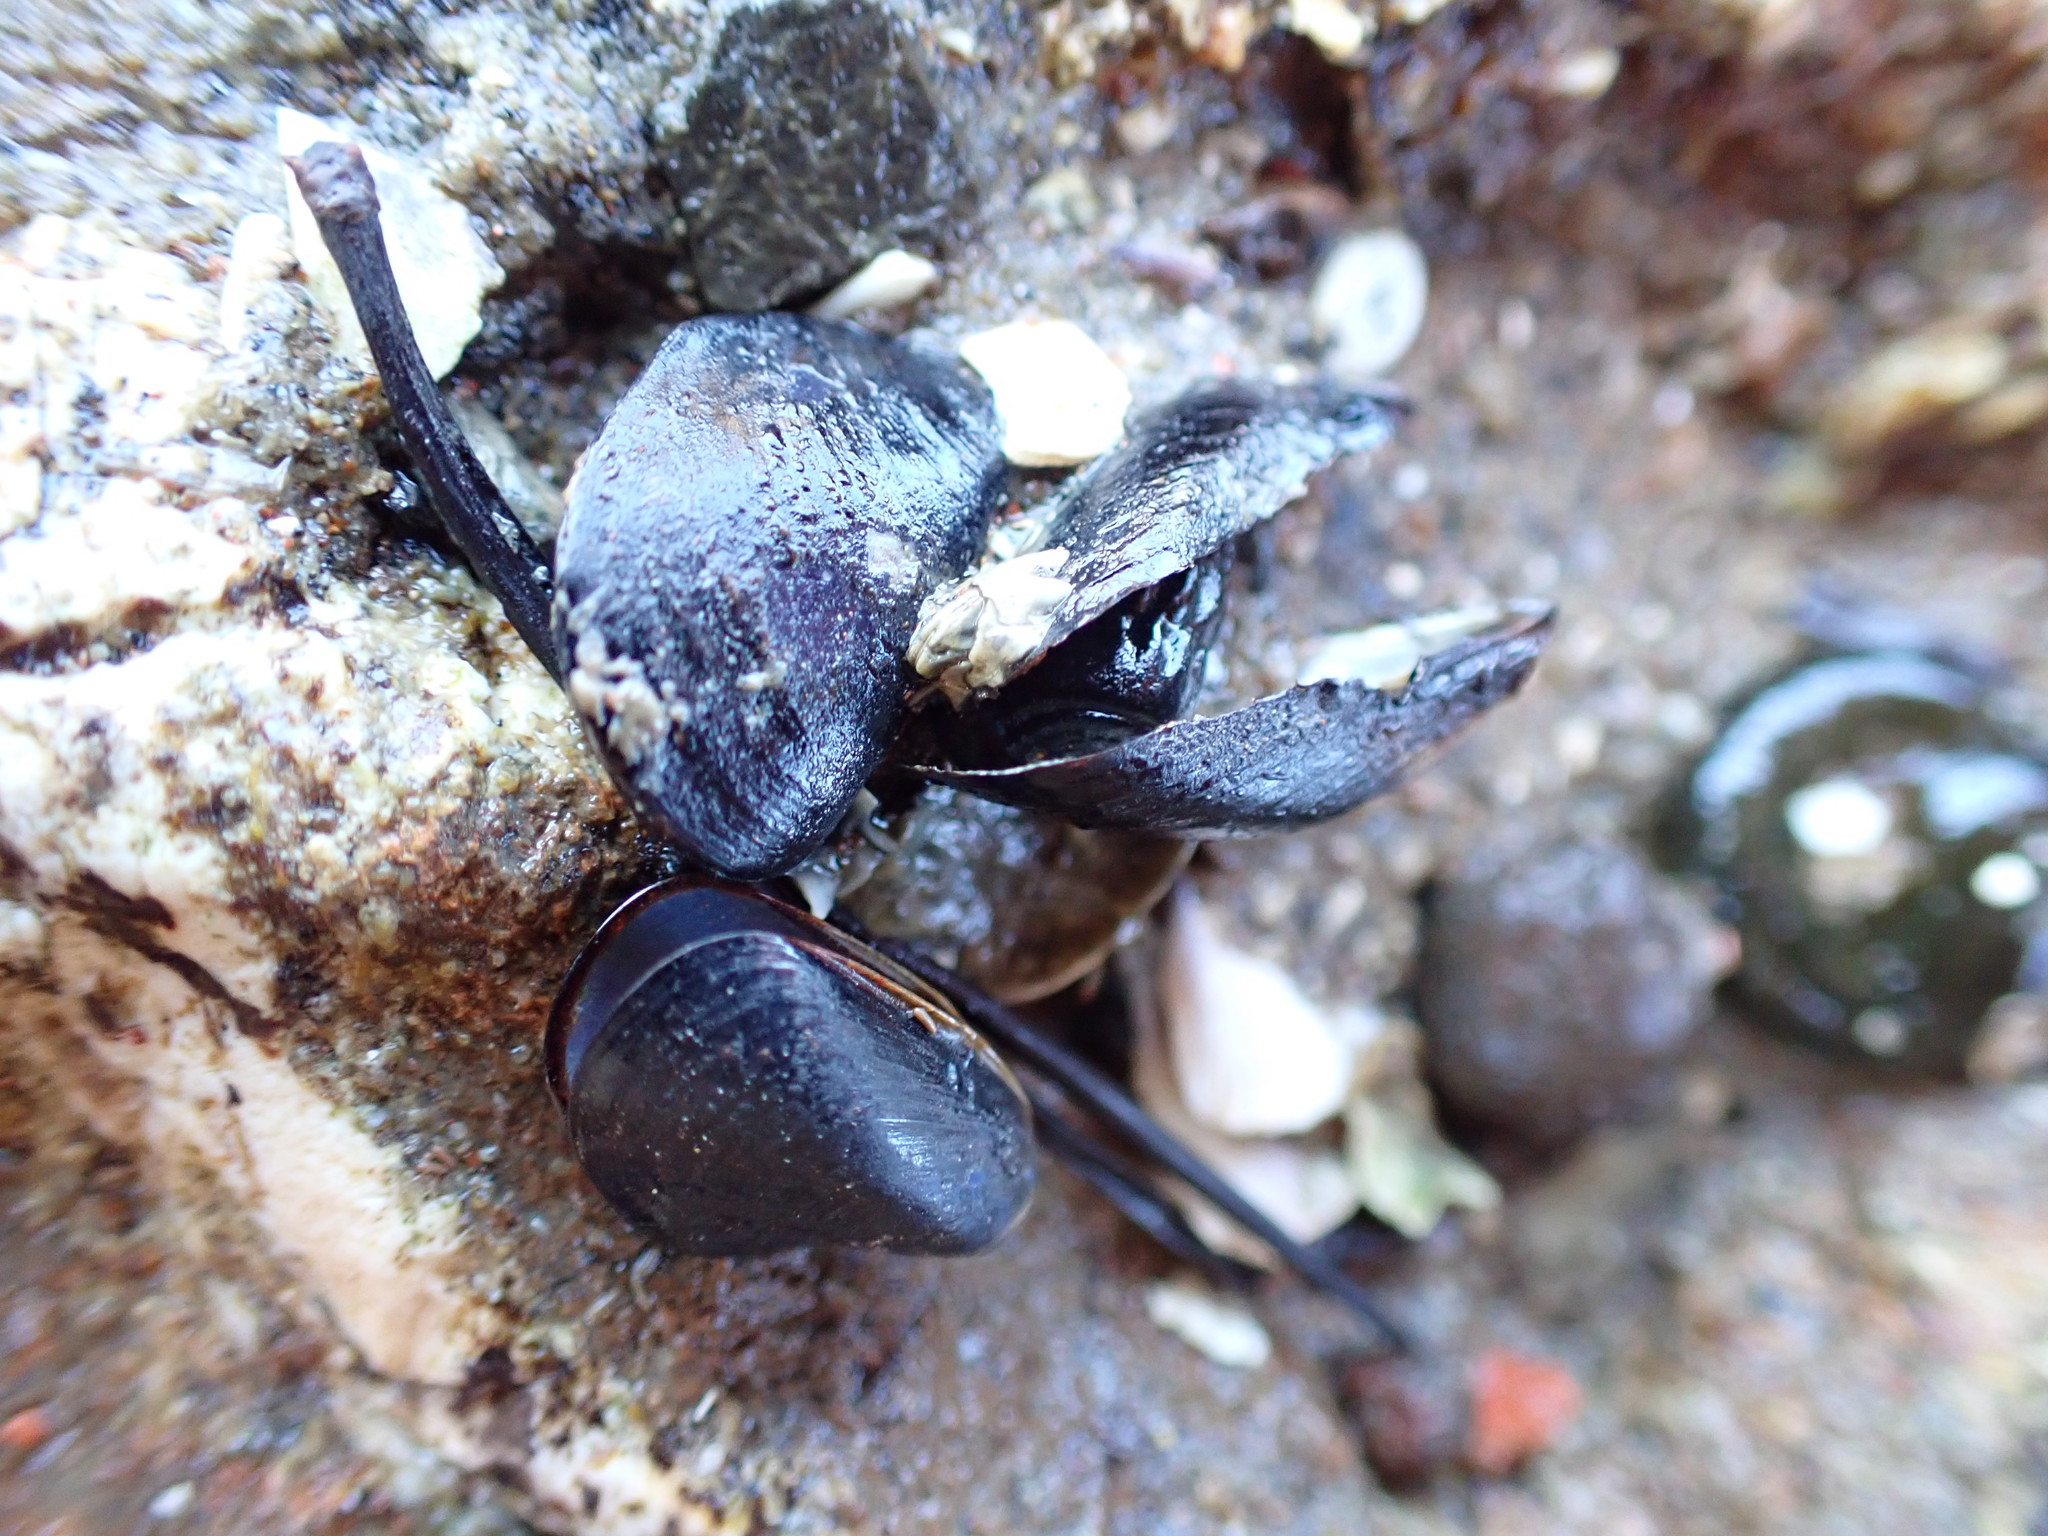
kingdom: Animalia
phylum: Mollusca
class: Bivalvia
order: Mytilida
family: Mytilidae
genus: Xenostrobus
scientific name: Xenostrobus neozelanicus
